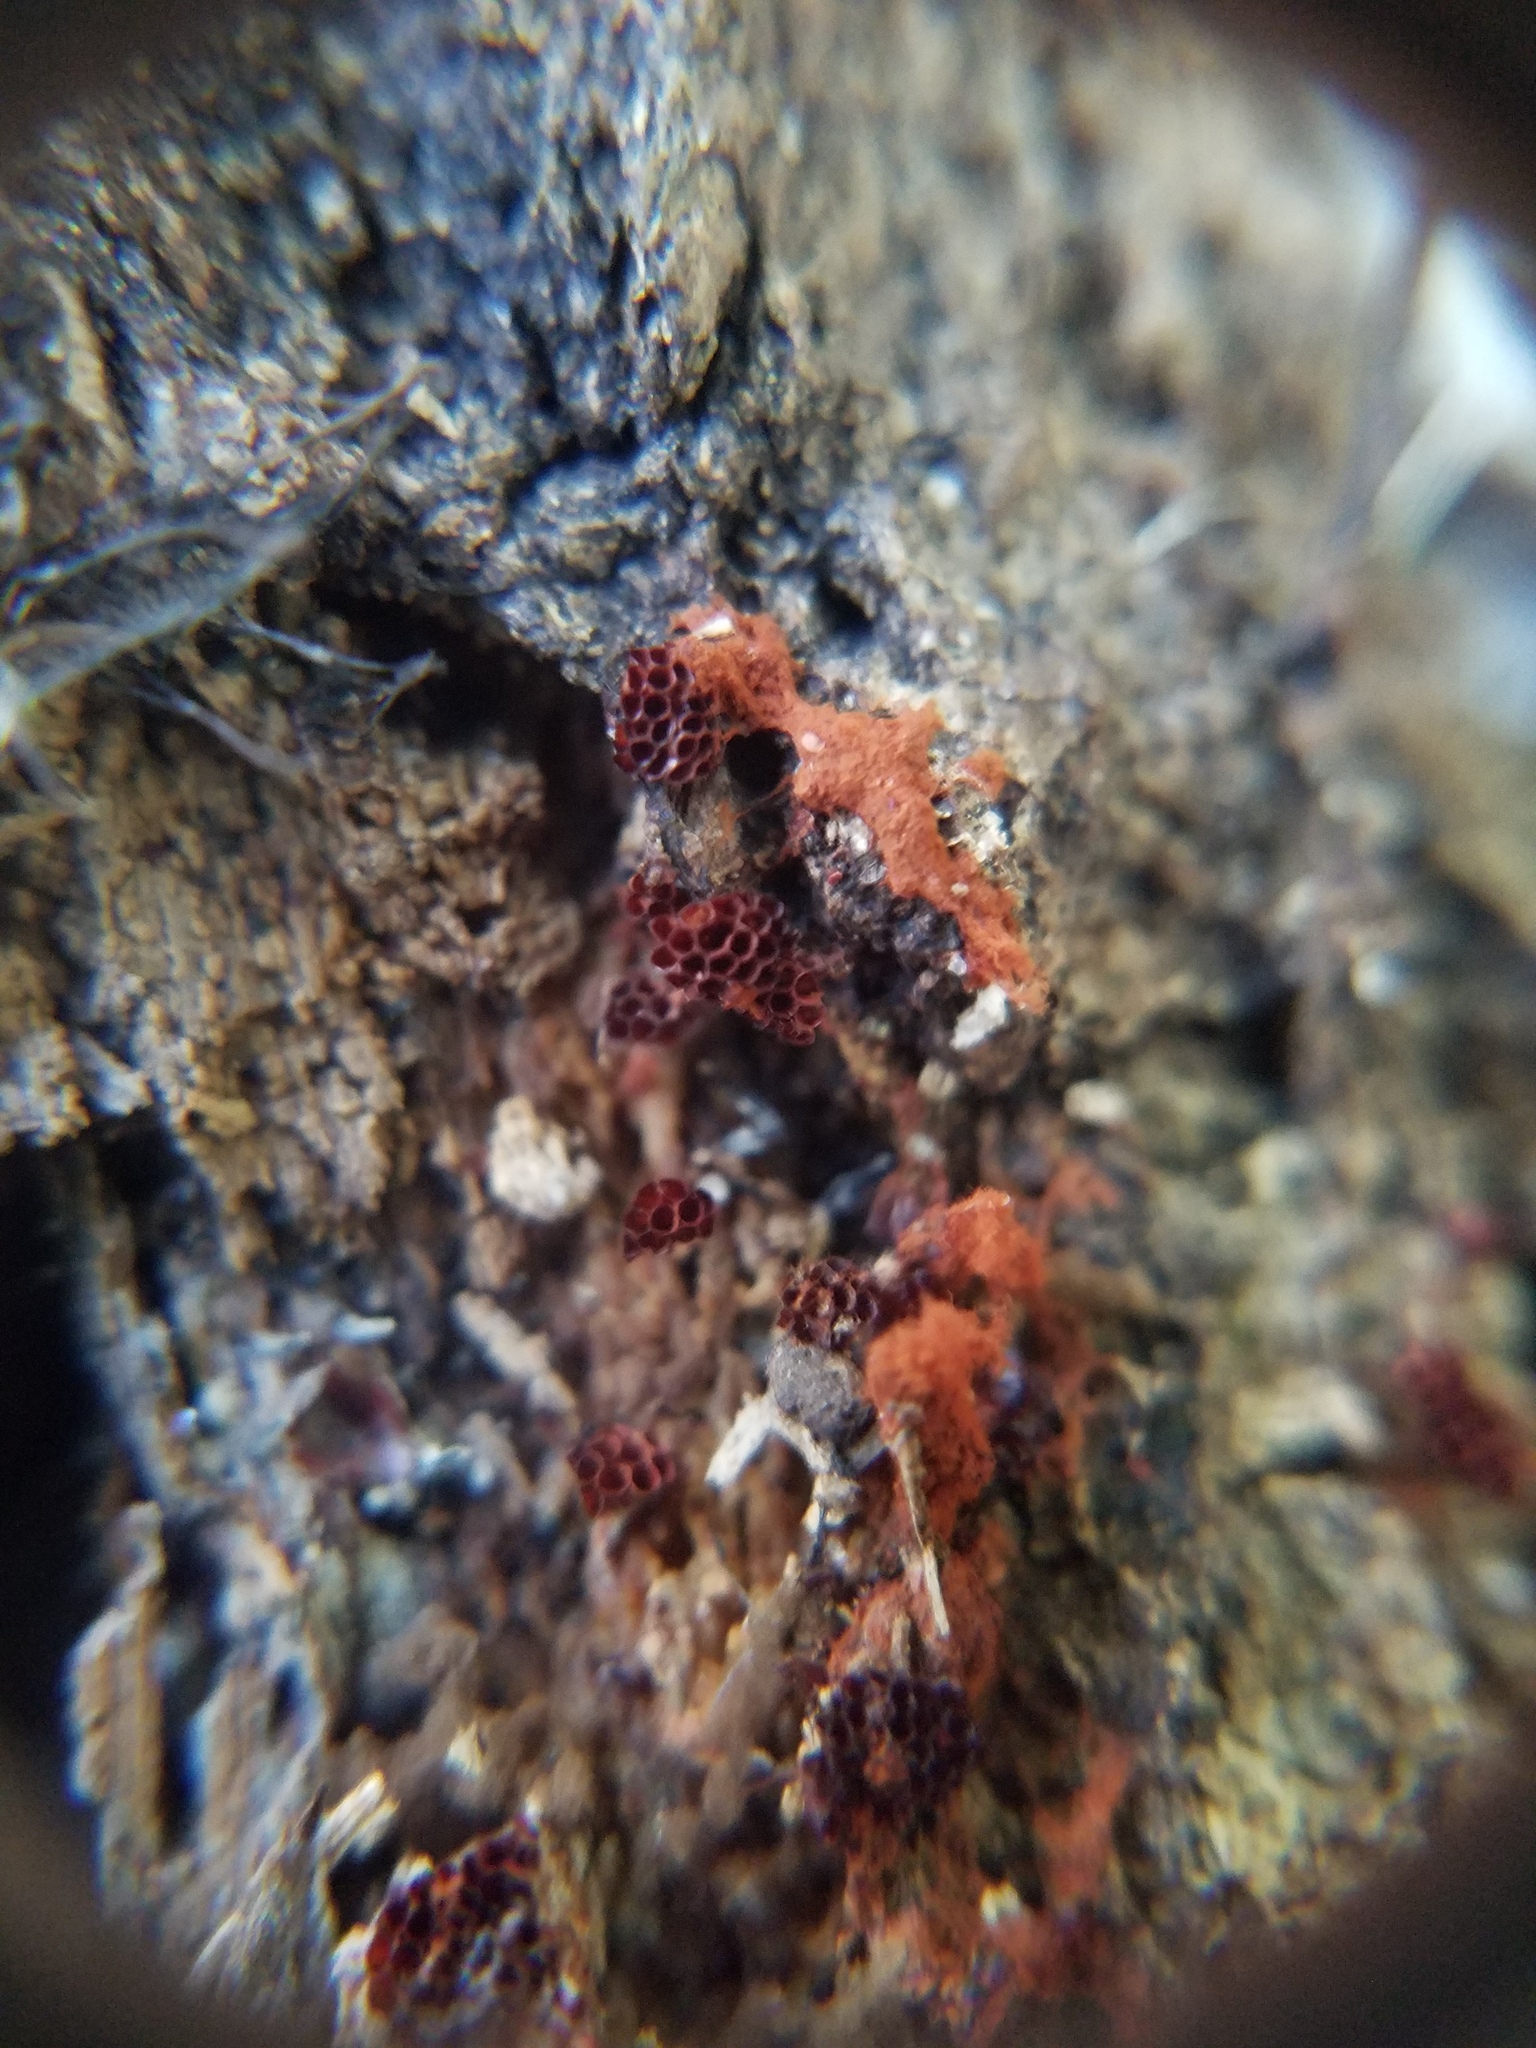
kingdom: Protozoa
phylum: Mycetozoa
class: Myxomycetes
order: Trichiales
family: Trichiaceae
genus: Metatrichia
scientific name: Metatrichia vesparia
